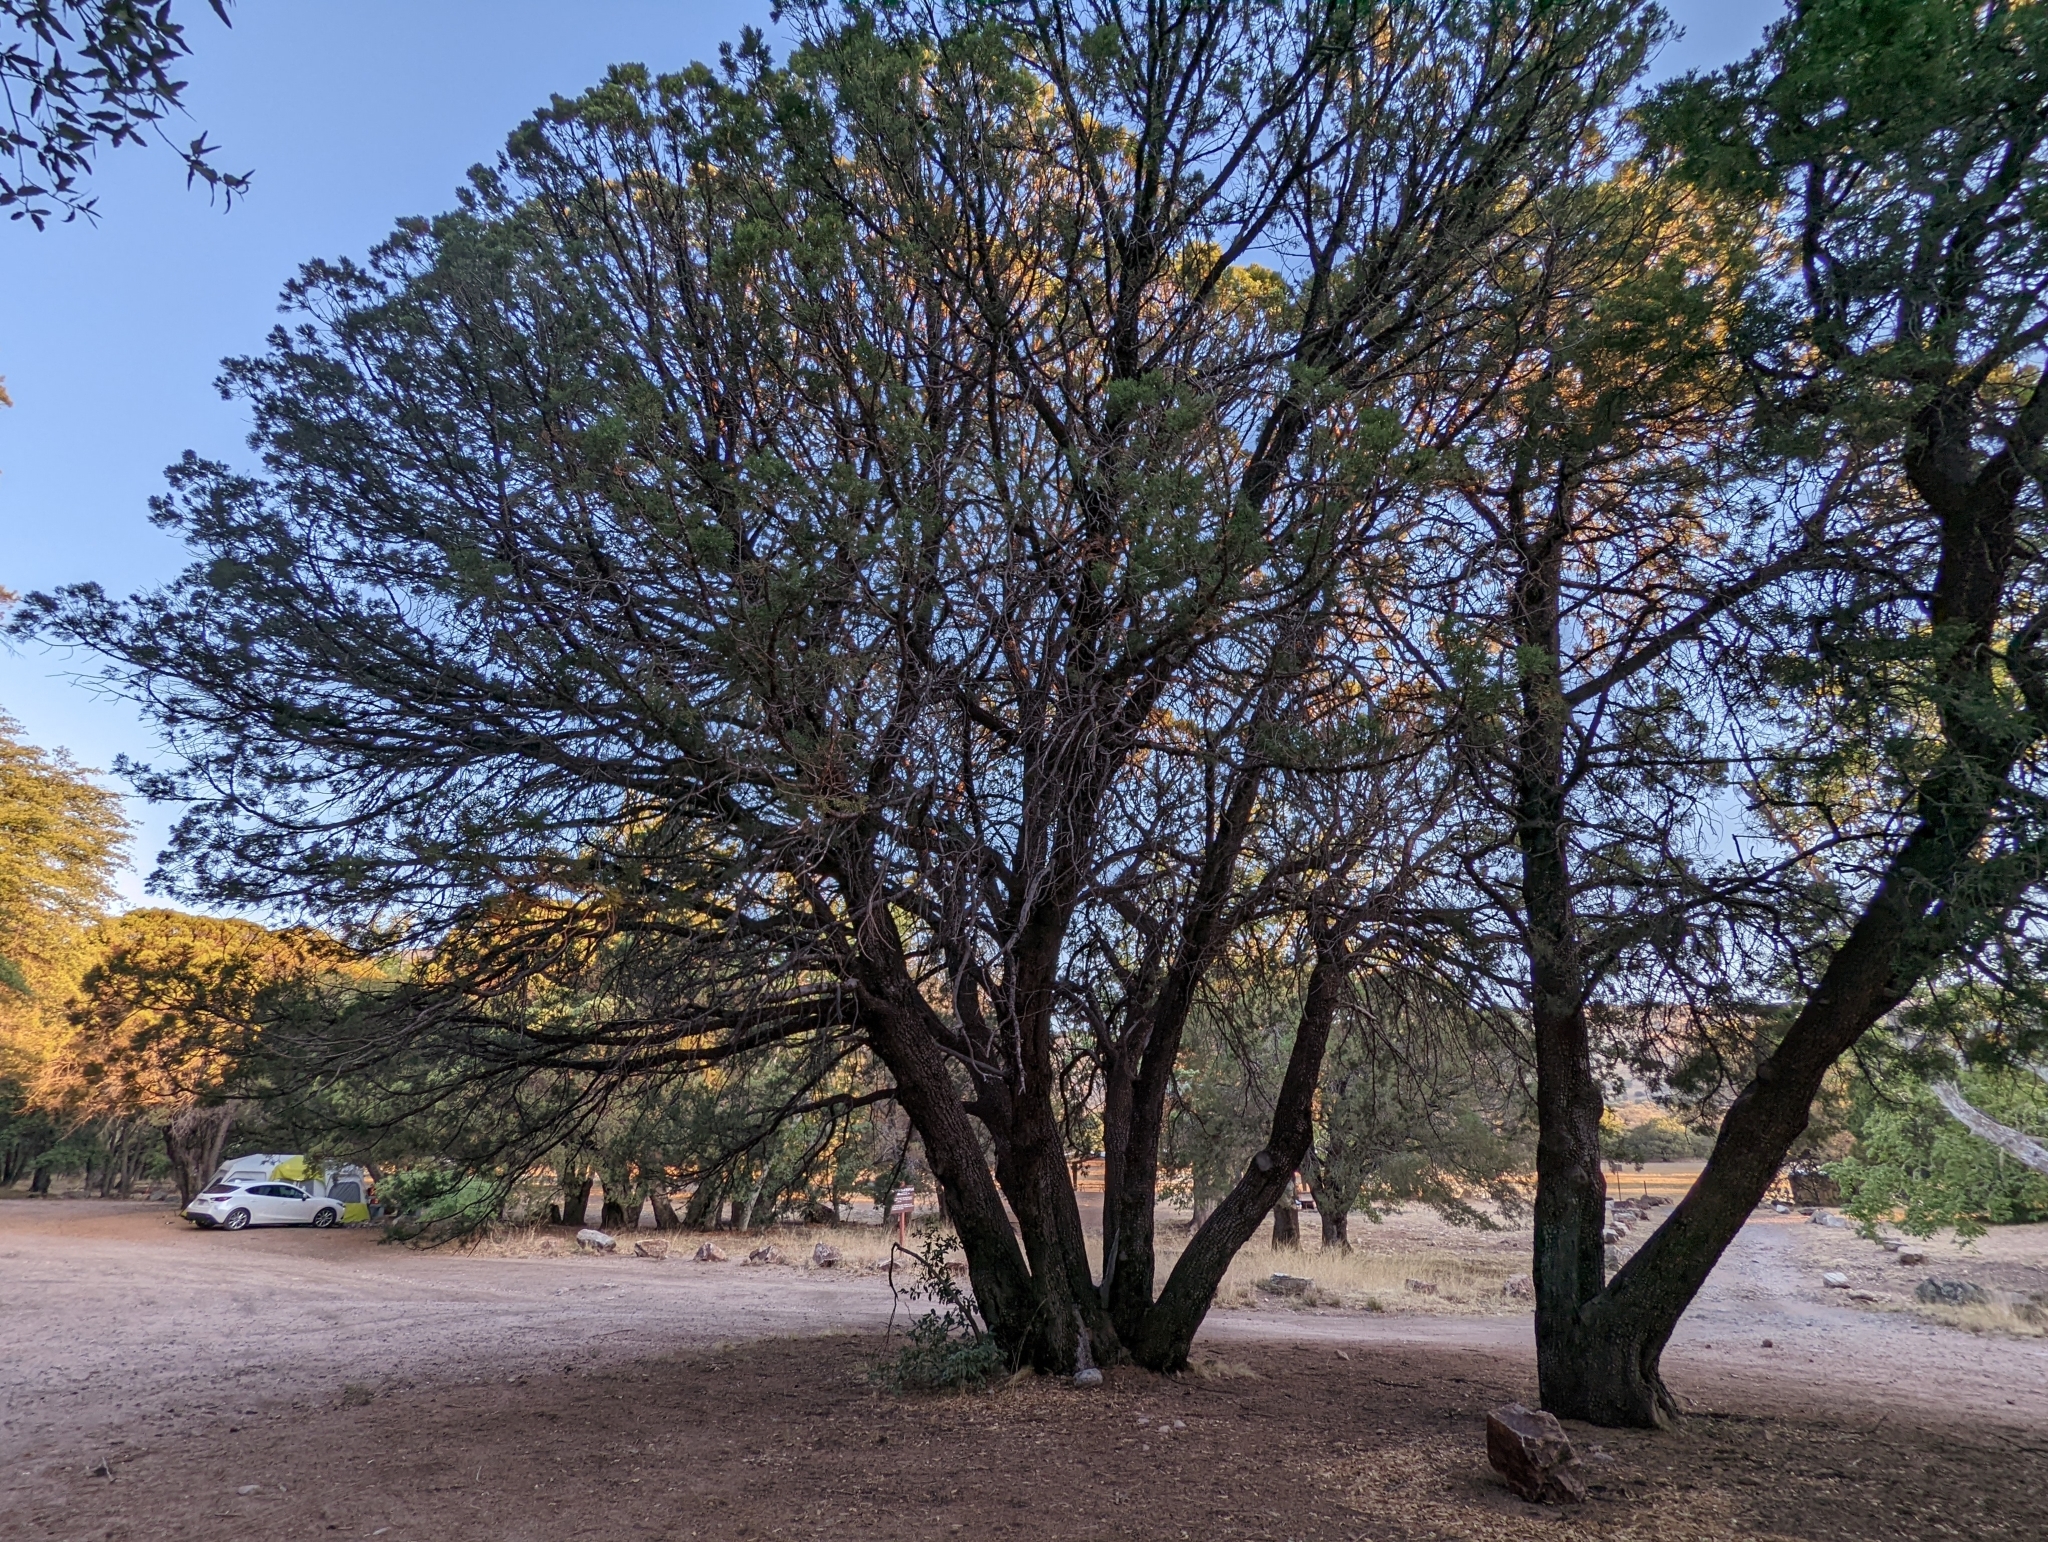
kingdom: Plantae
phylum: Tracheophyta
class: Pinopsida
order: Pinales
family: Cupressaceae
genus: Juniperus
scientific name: Juniperus deppeana
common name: Alligator juniper
